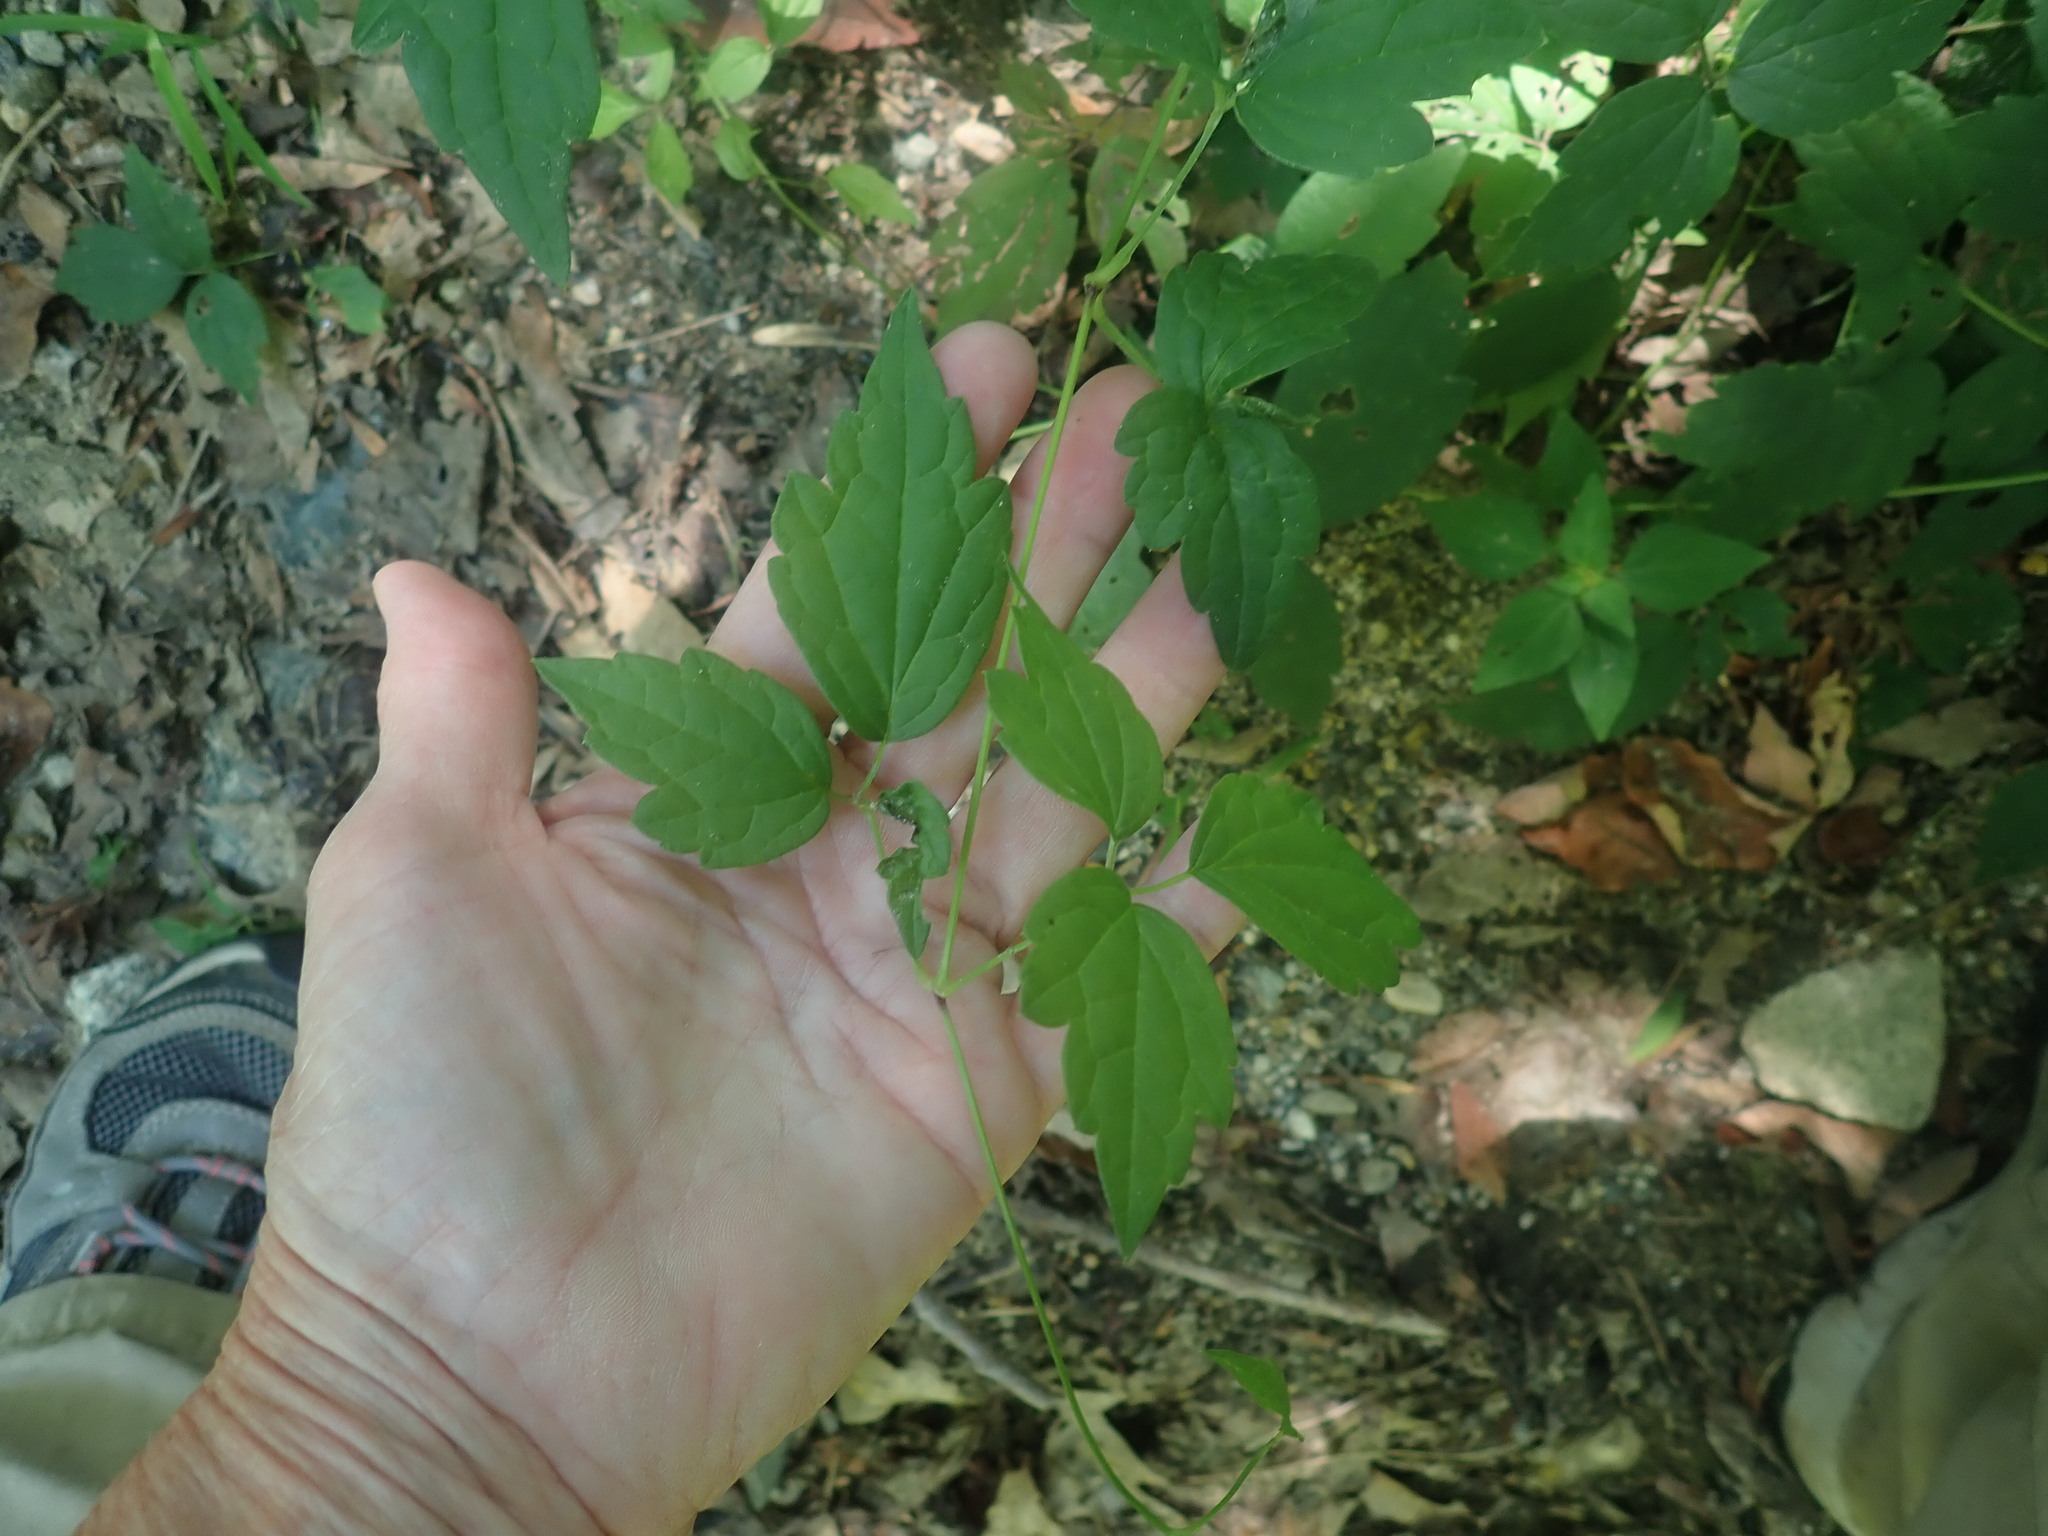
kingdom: Plantae
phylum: Tracheophyta
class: Magnoliopsida
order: Ranunculales
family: Ranunculaceae
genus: Clematis
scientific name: Clematis virginiana
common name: Virgin's-bower
